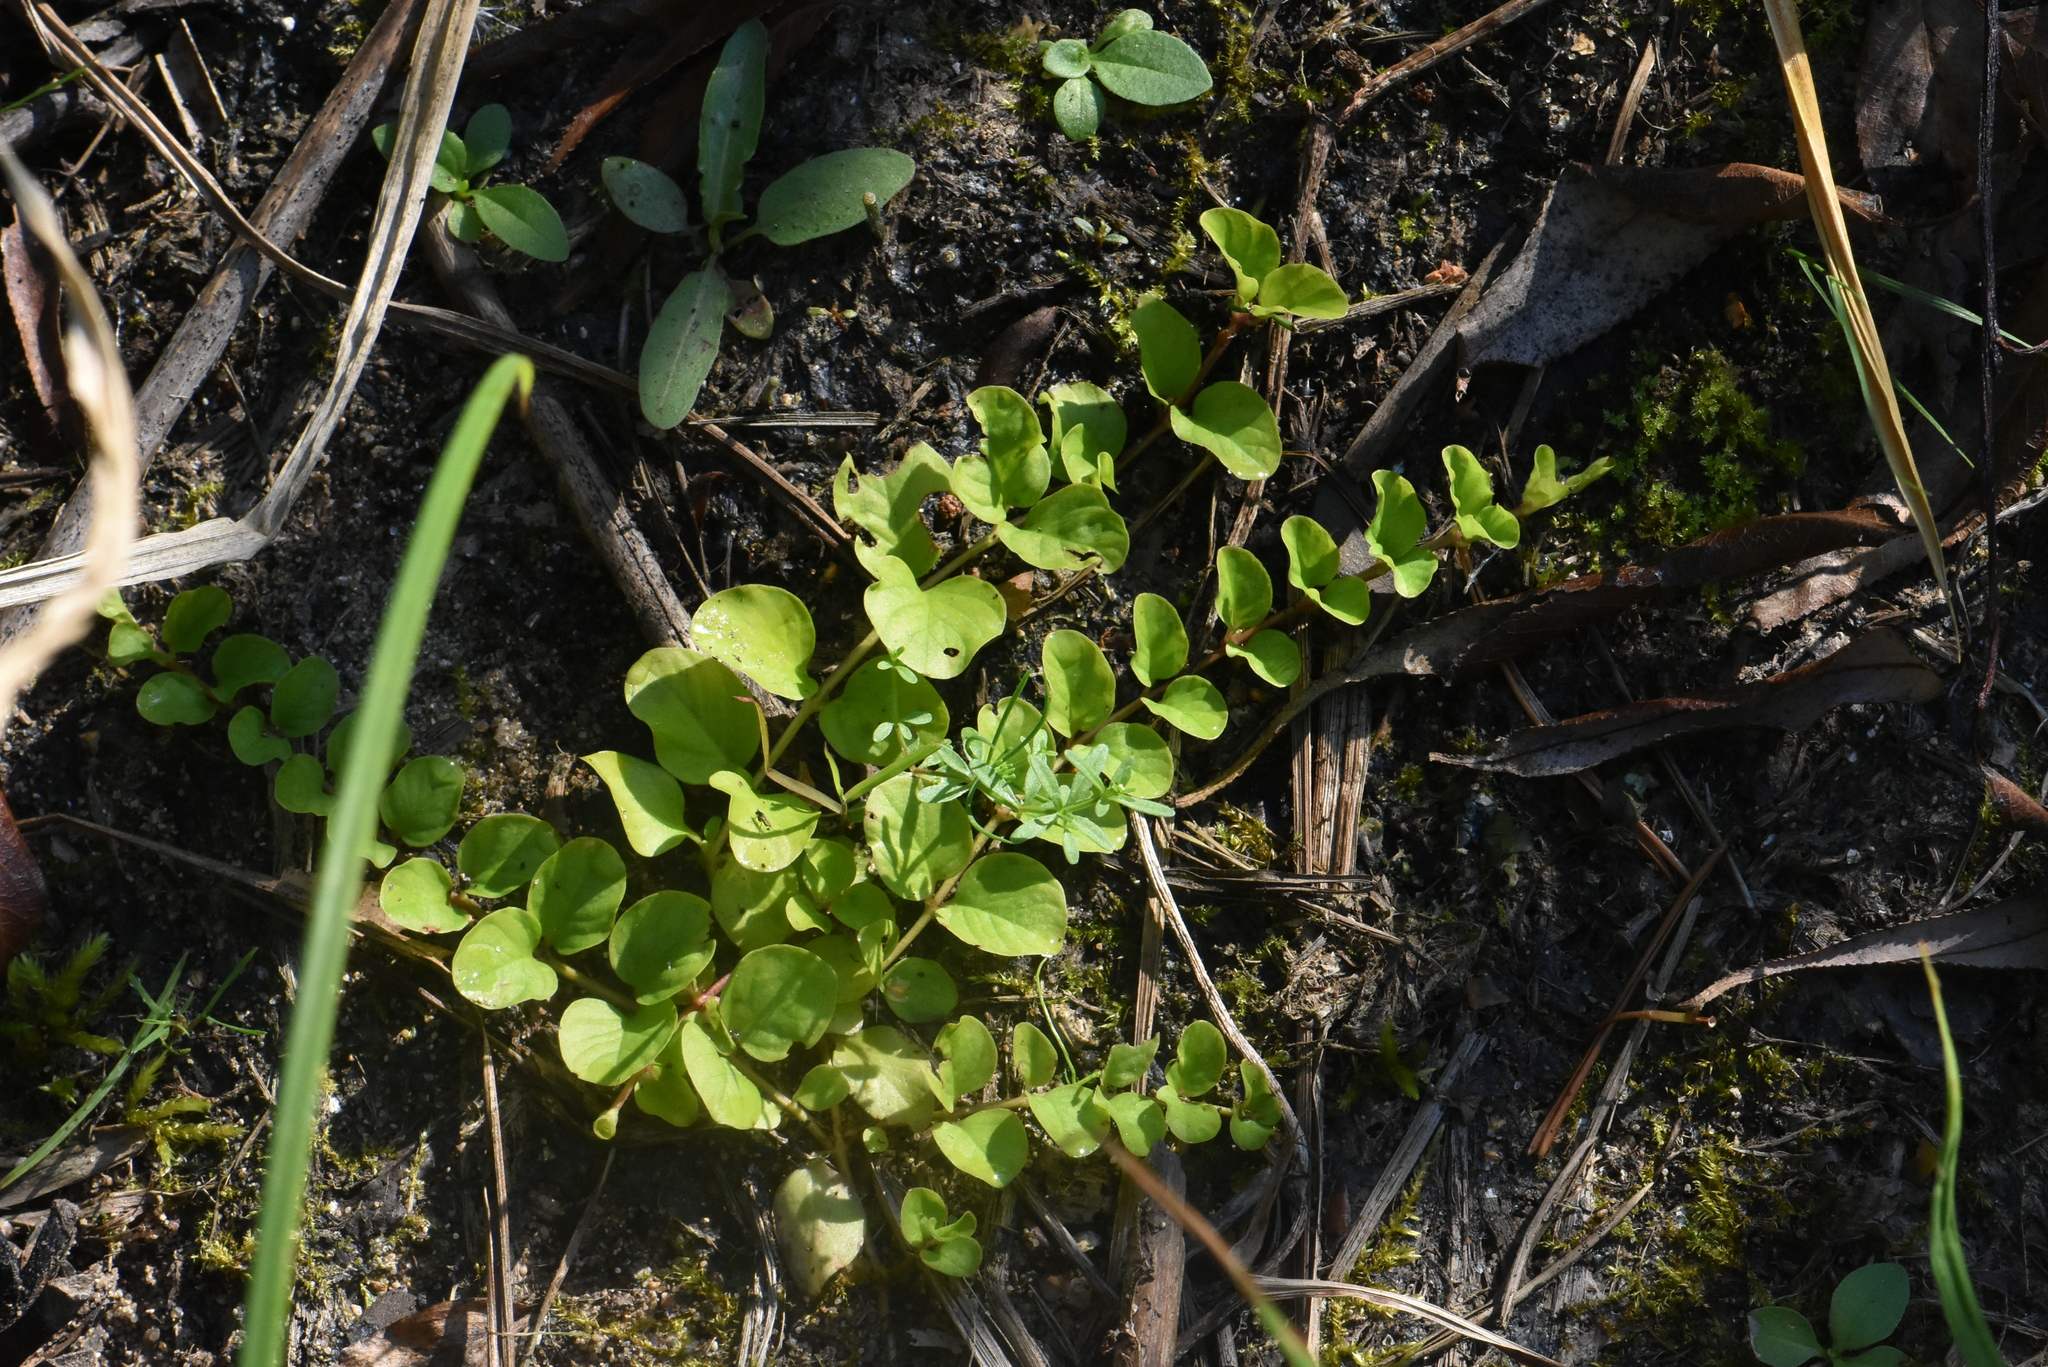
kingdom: Plantae
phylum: Tracheophyta
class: Magnoliopsida
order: Ericales
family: Primulaceae
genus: Lysimachia
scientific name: Lysimachia nummularia
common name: Moneywort
